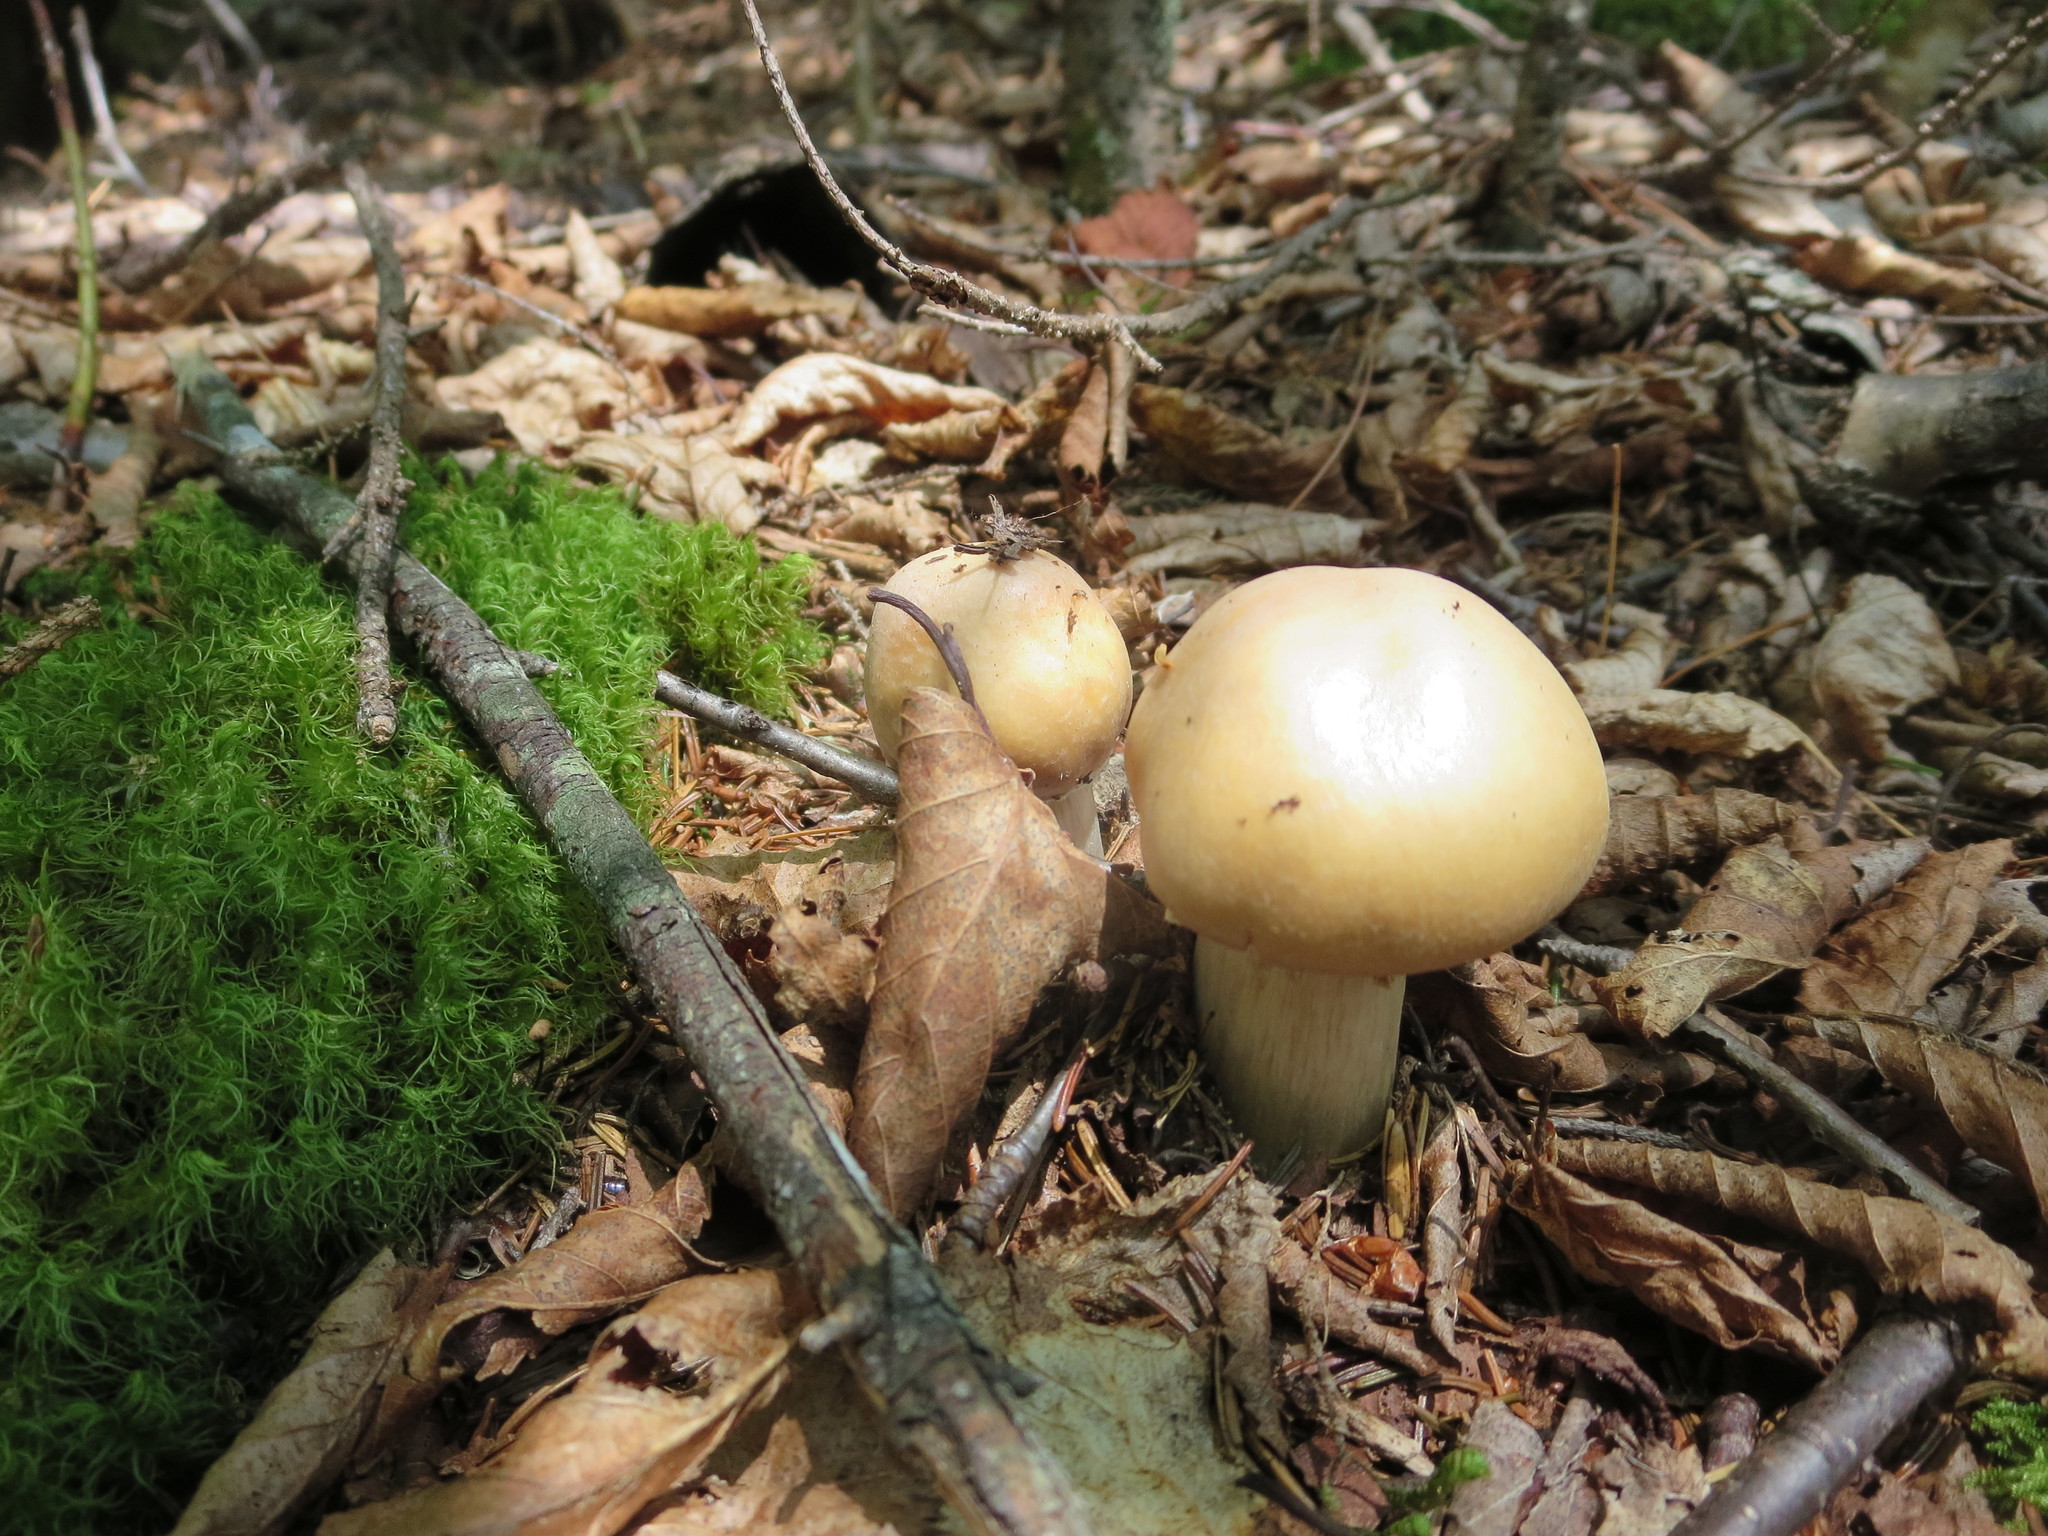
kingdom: Fungi
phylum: Basidiomycota
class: Agaricomycetes
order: Agaricales
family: Cortinariaceae
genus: Cortinarius
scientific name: Cortinarius caperatus
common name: The gypsy
